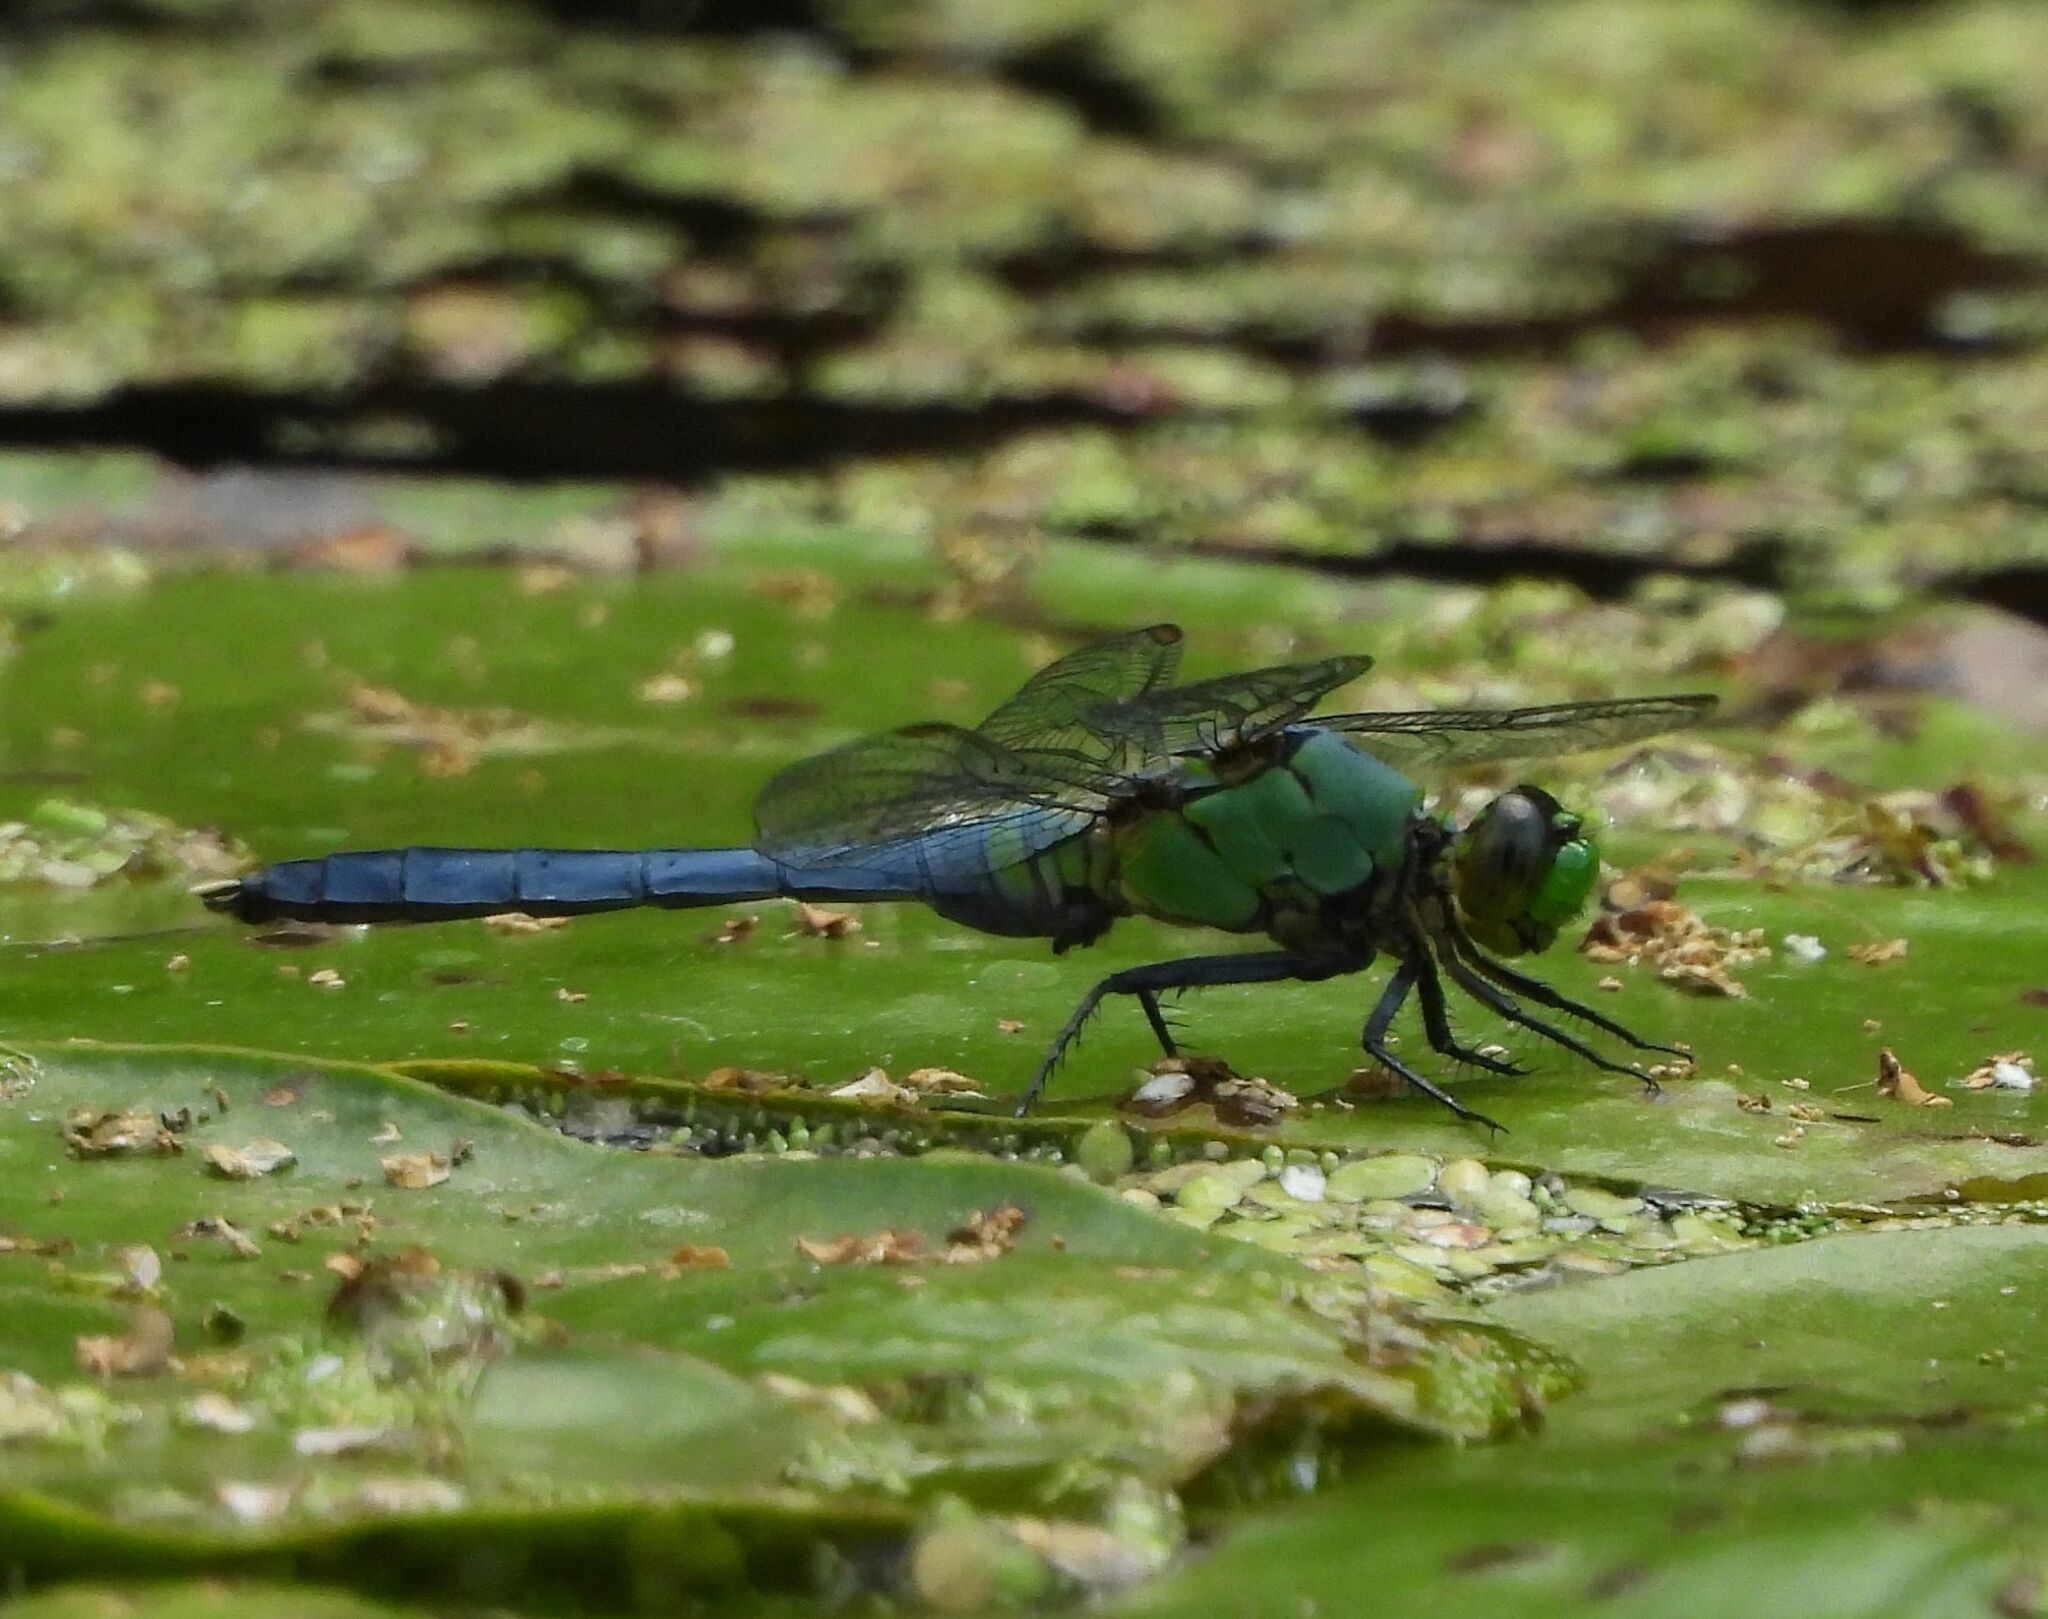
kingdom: Animalia
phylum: Arthropoda
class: Insecta
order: Odonata
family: Libellulidae
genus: Erythemis
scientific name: Erythemis simplicicollis
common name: Eastern pondhawk
